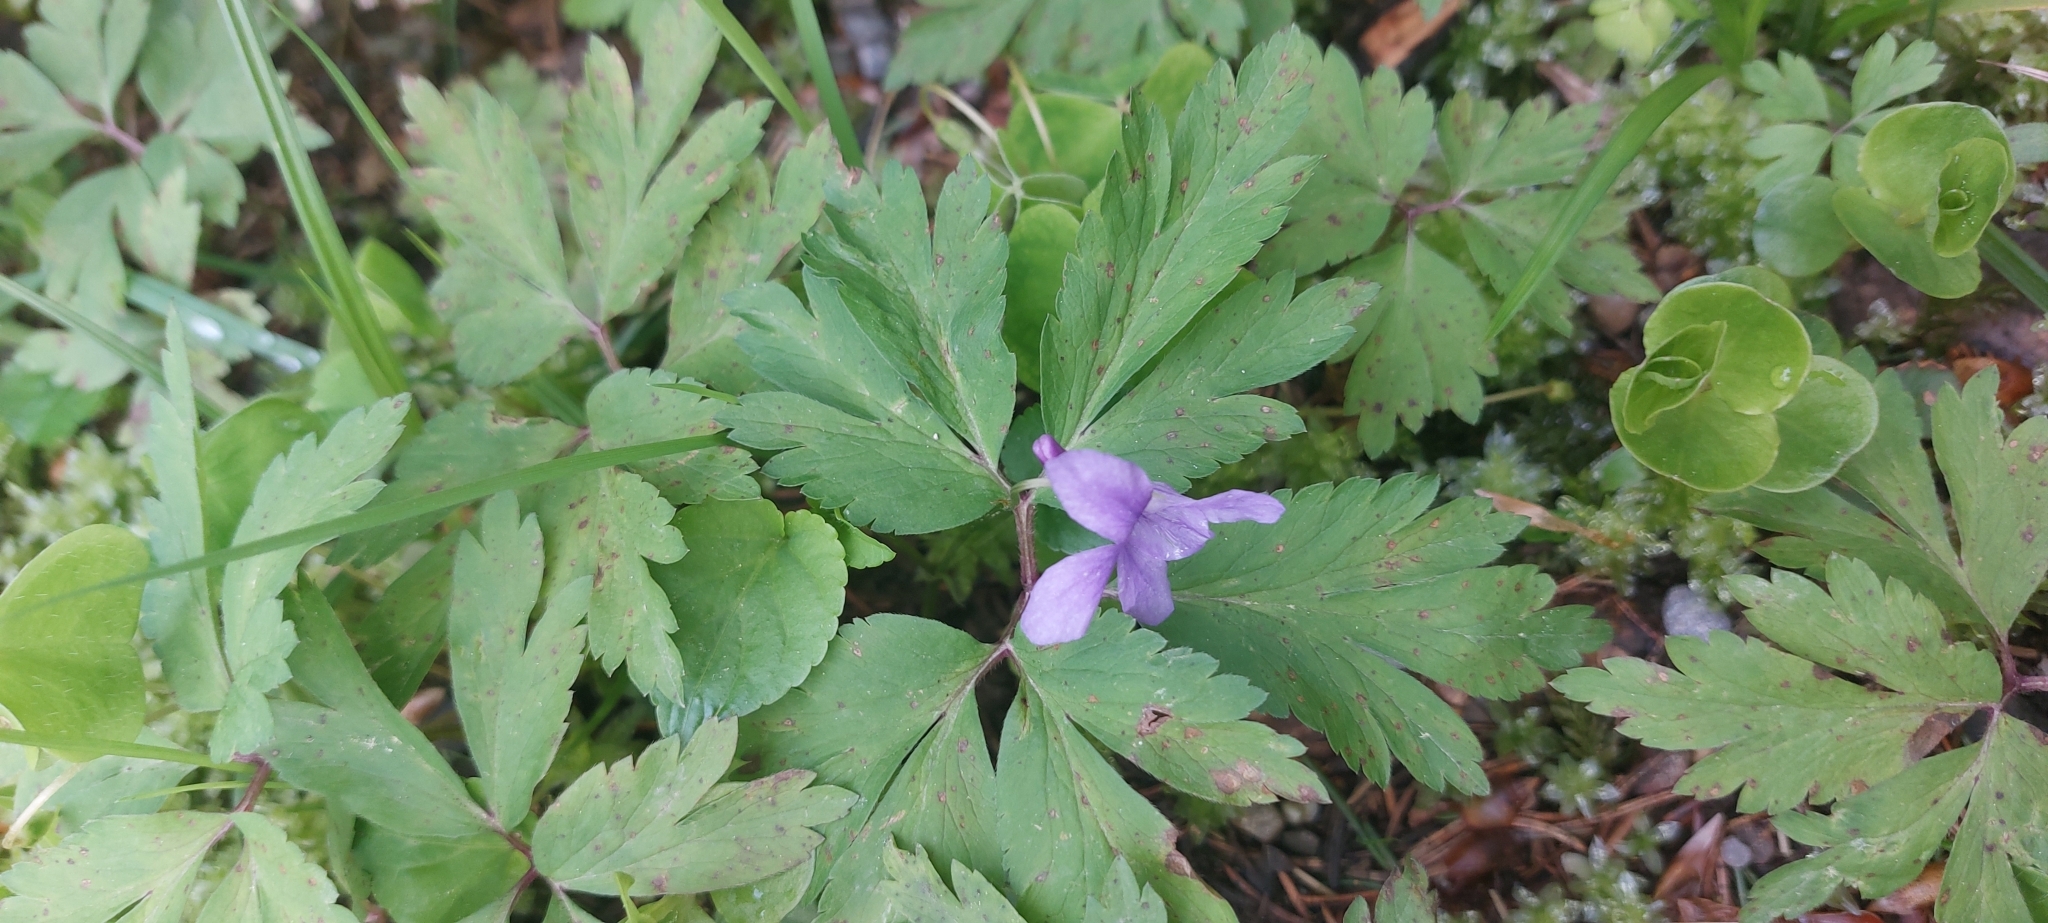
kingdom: Plantae
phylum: Tracheophyta
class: Magnoliopsida
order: Ranunculales
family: Ranunculaceae
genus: Anemone
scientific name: Anemone nemorosa
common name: Wood anemone
